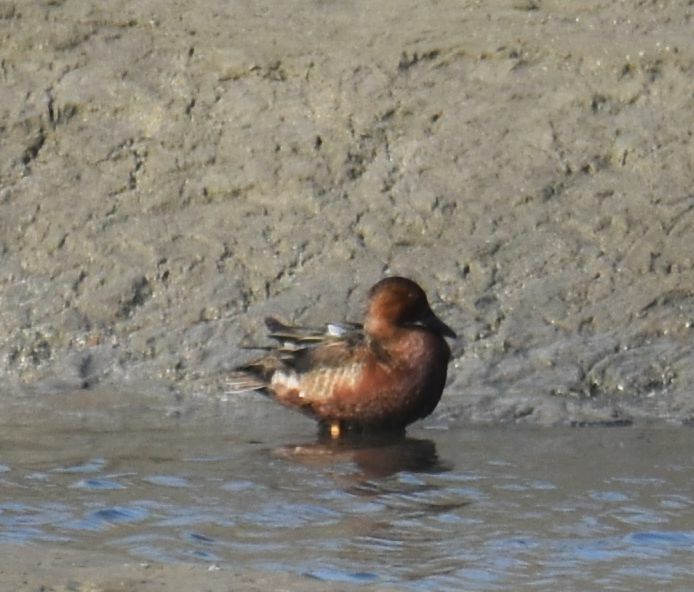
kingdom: Animalia
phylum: Chordata
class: Aves
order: Anseriformes
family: Anatidae
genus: Spatula
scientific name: Spatula cyanoptera
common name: Cinnamon teal
